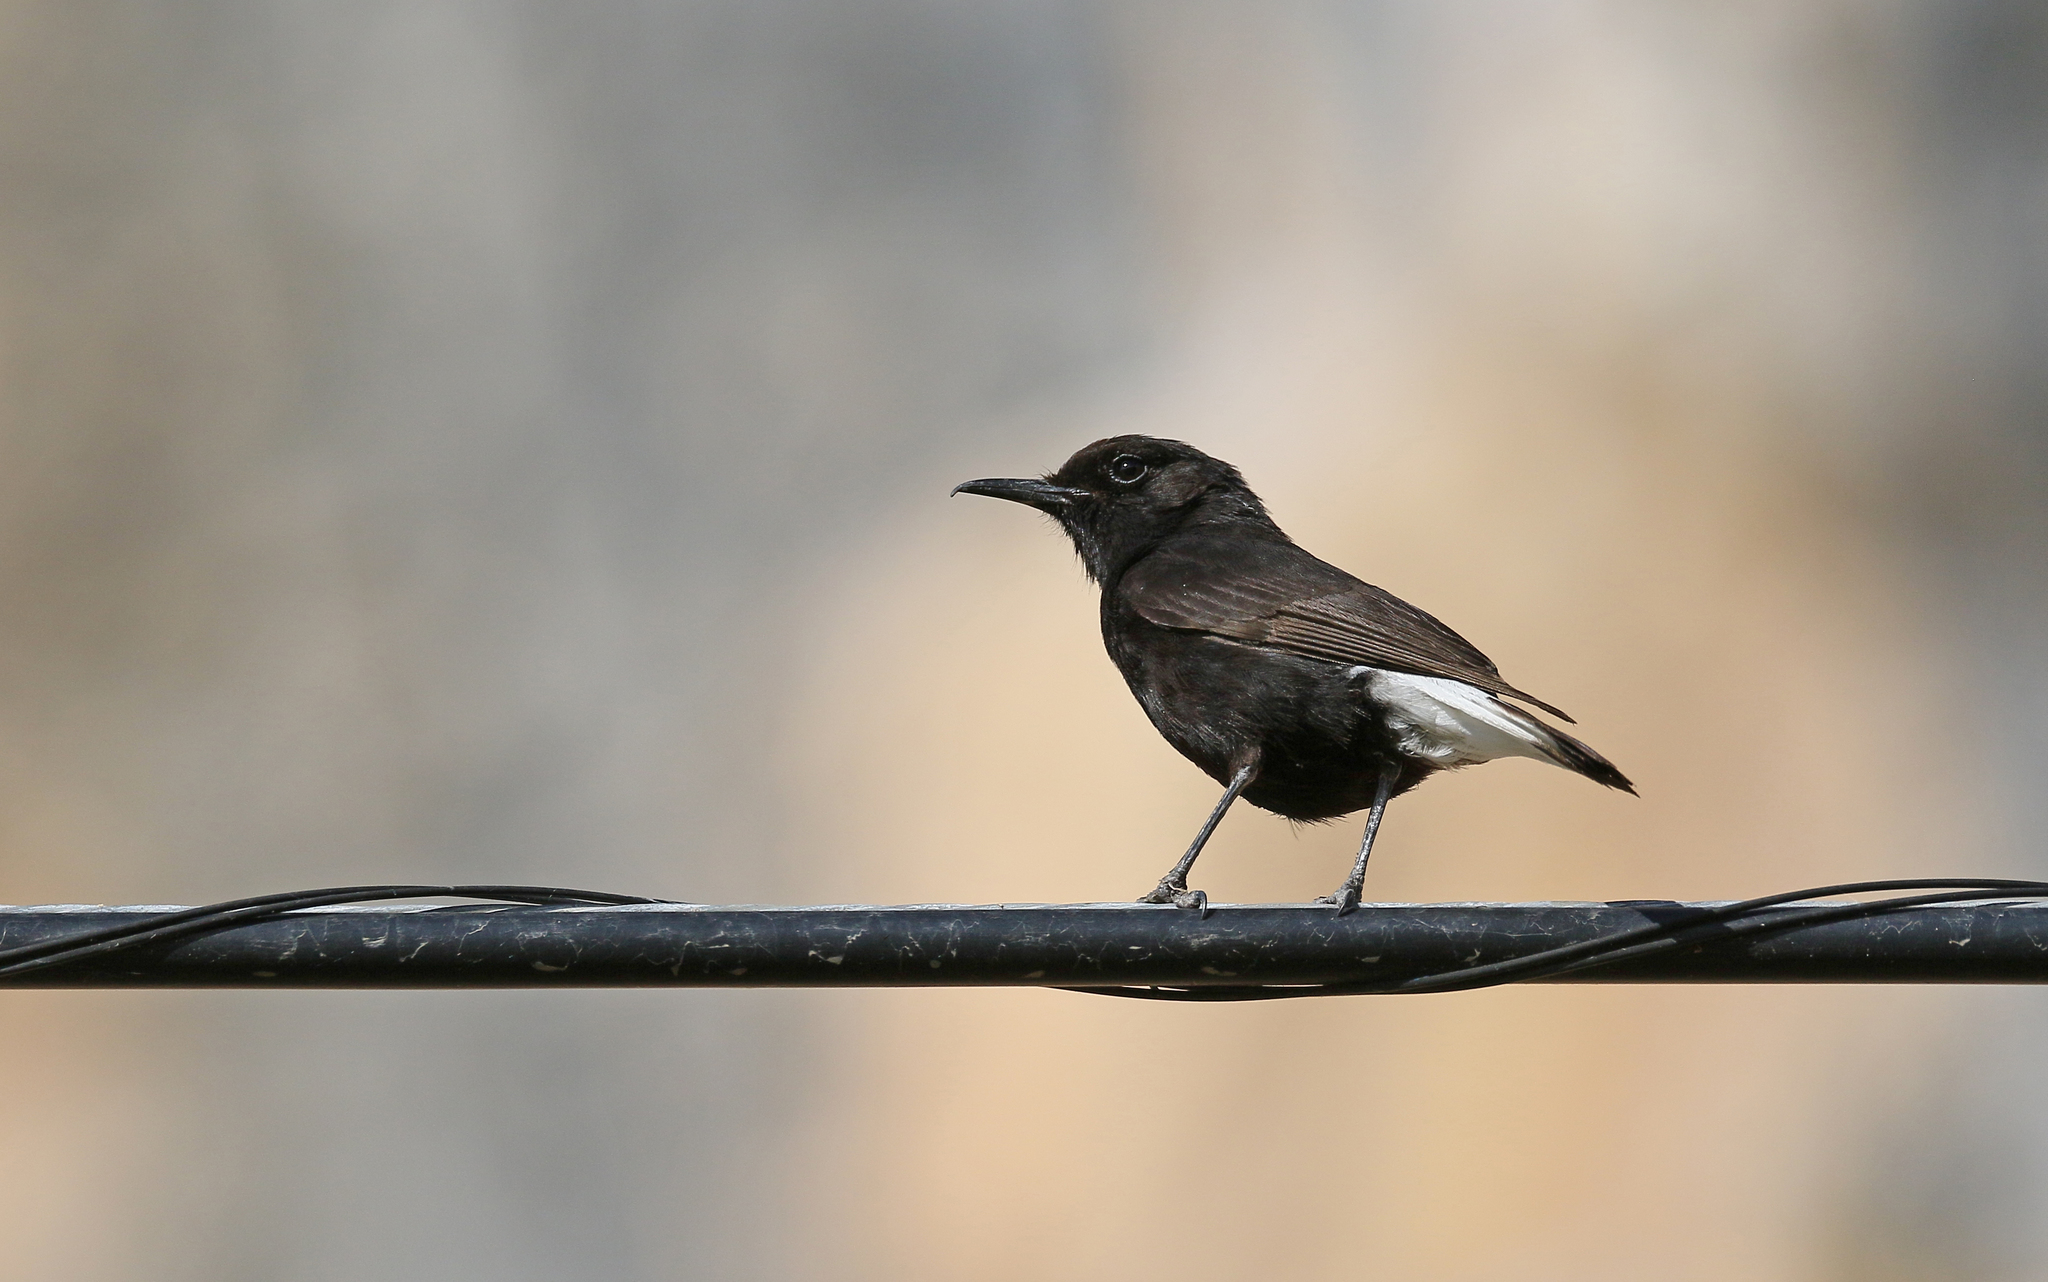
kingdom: Animalia
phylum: Chordata
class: Aves
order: Passeriformes
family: Muscicapidae
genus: Oenanthe
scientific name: Oenanthe leucura
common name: Black wheatear
